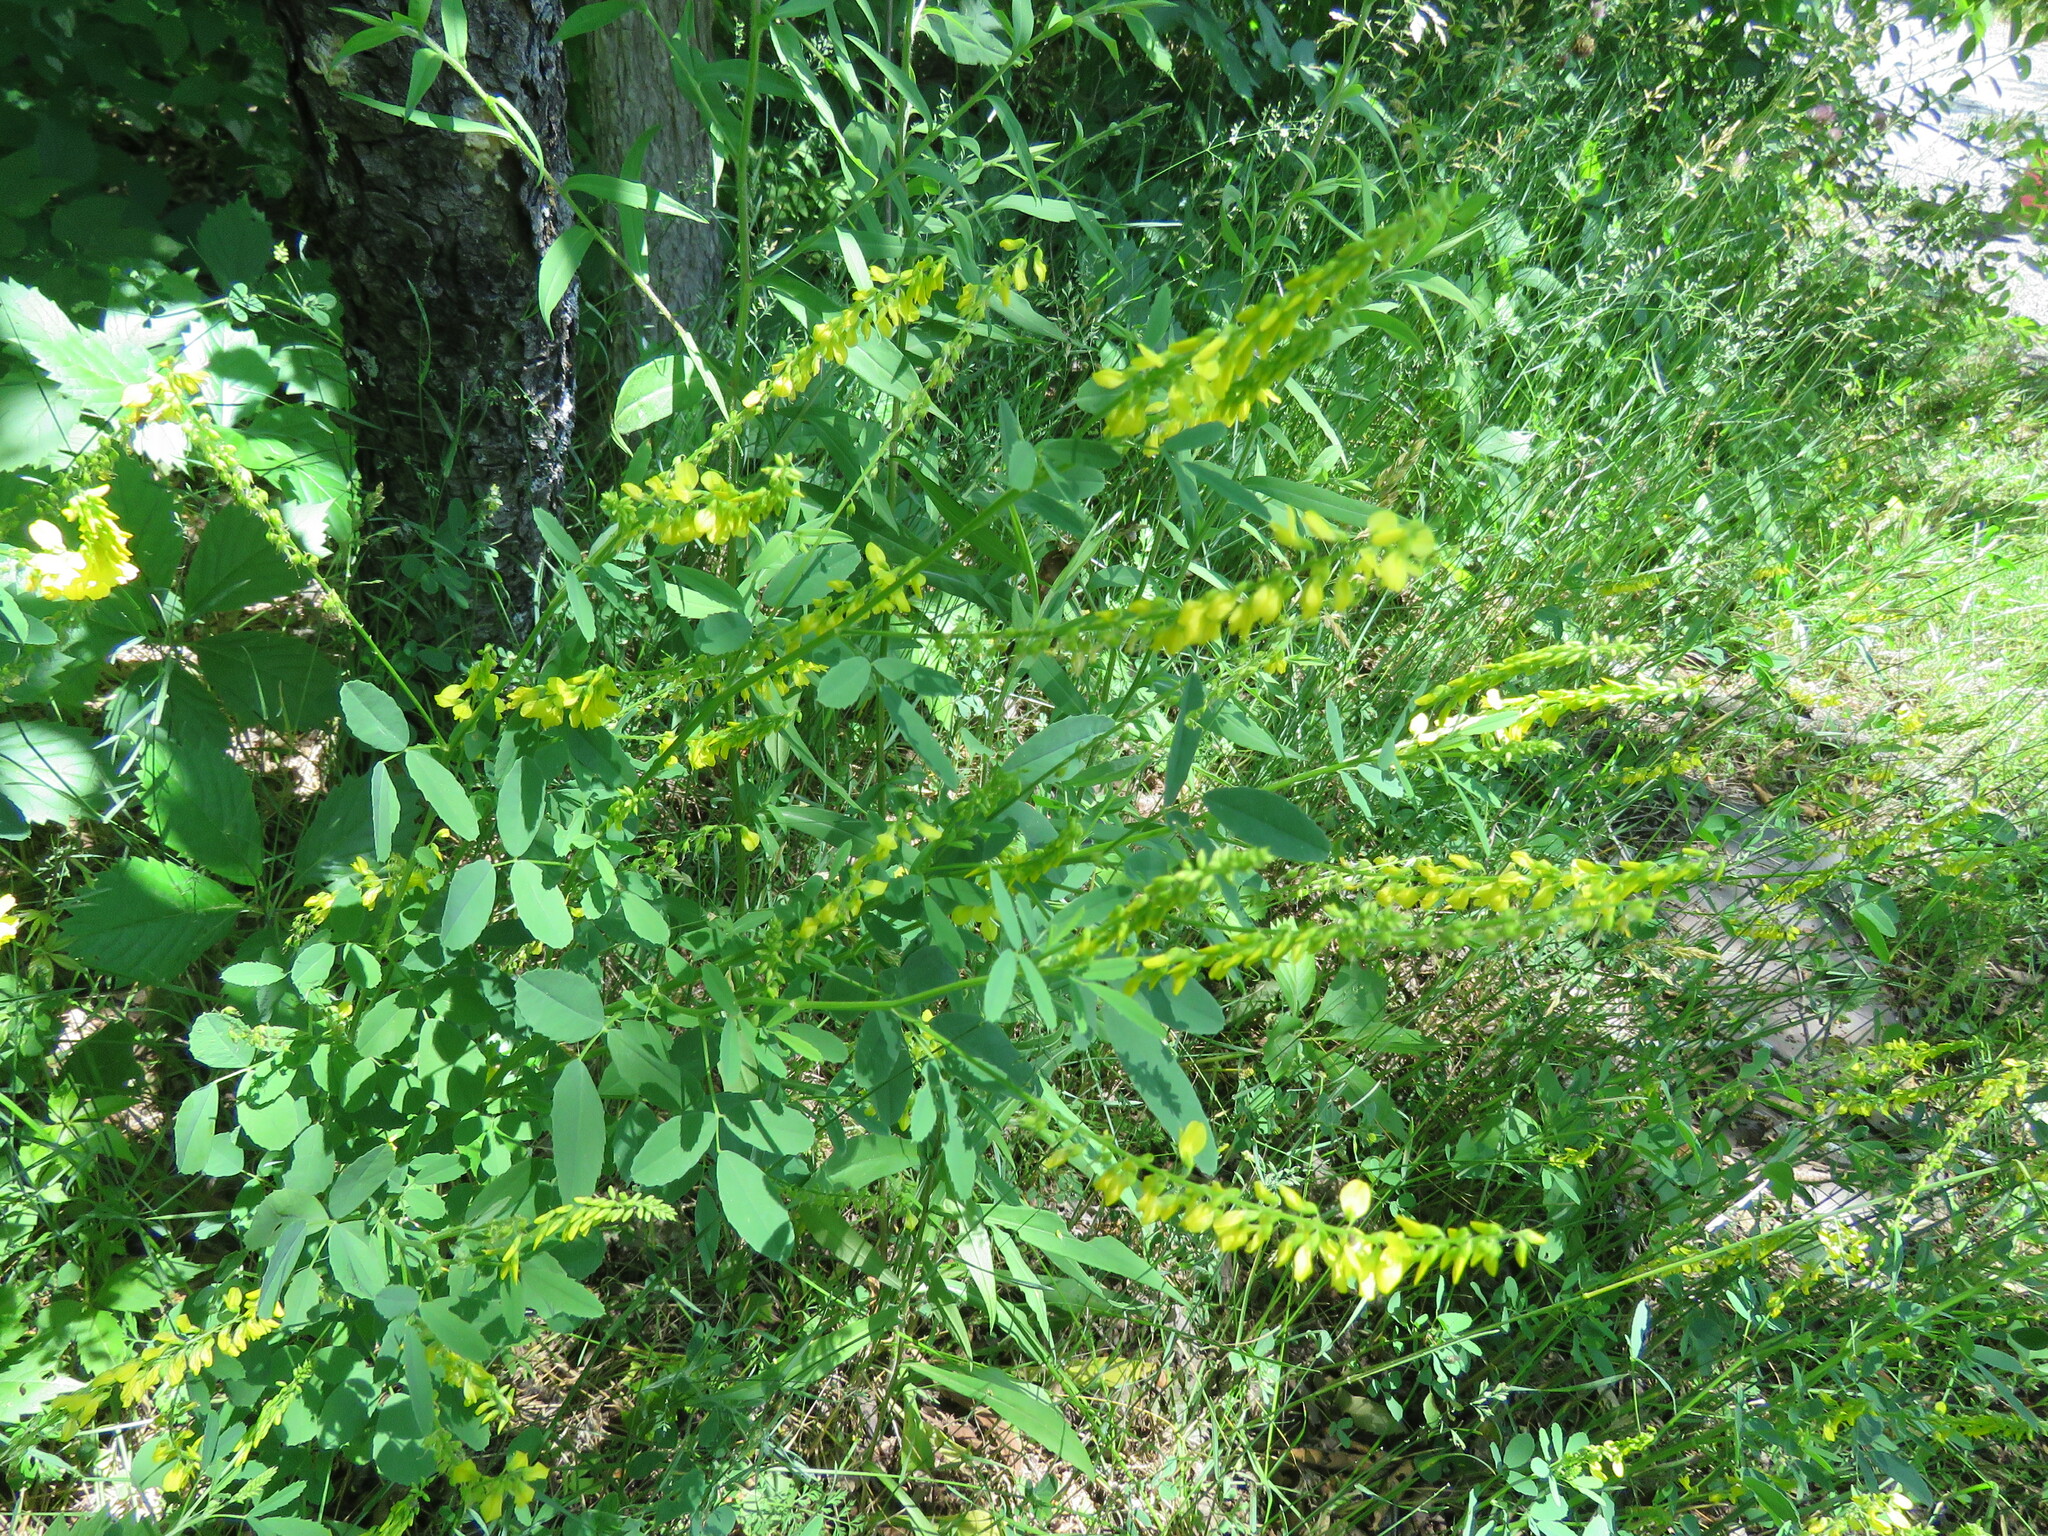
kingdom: Plantae
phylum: Tracheophyta
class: Magnoliopsida
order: Fabales
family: Fabaceae
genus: Melilotus
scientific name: Melilotus officinalis
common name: Sweetclover
